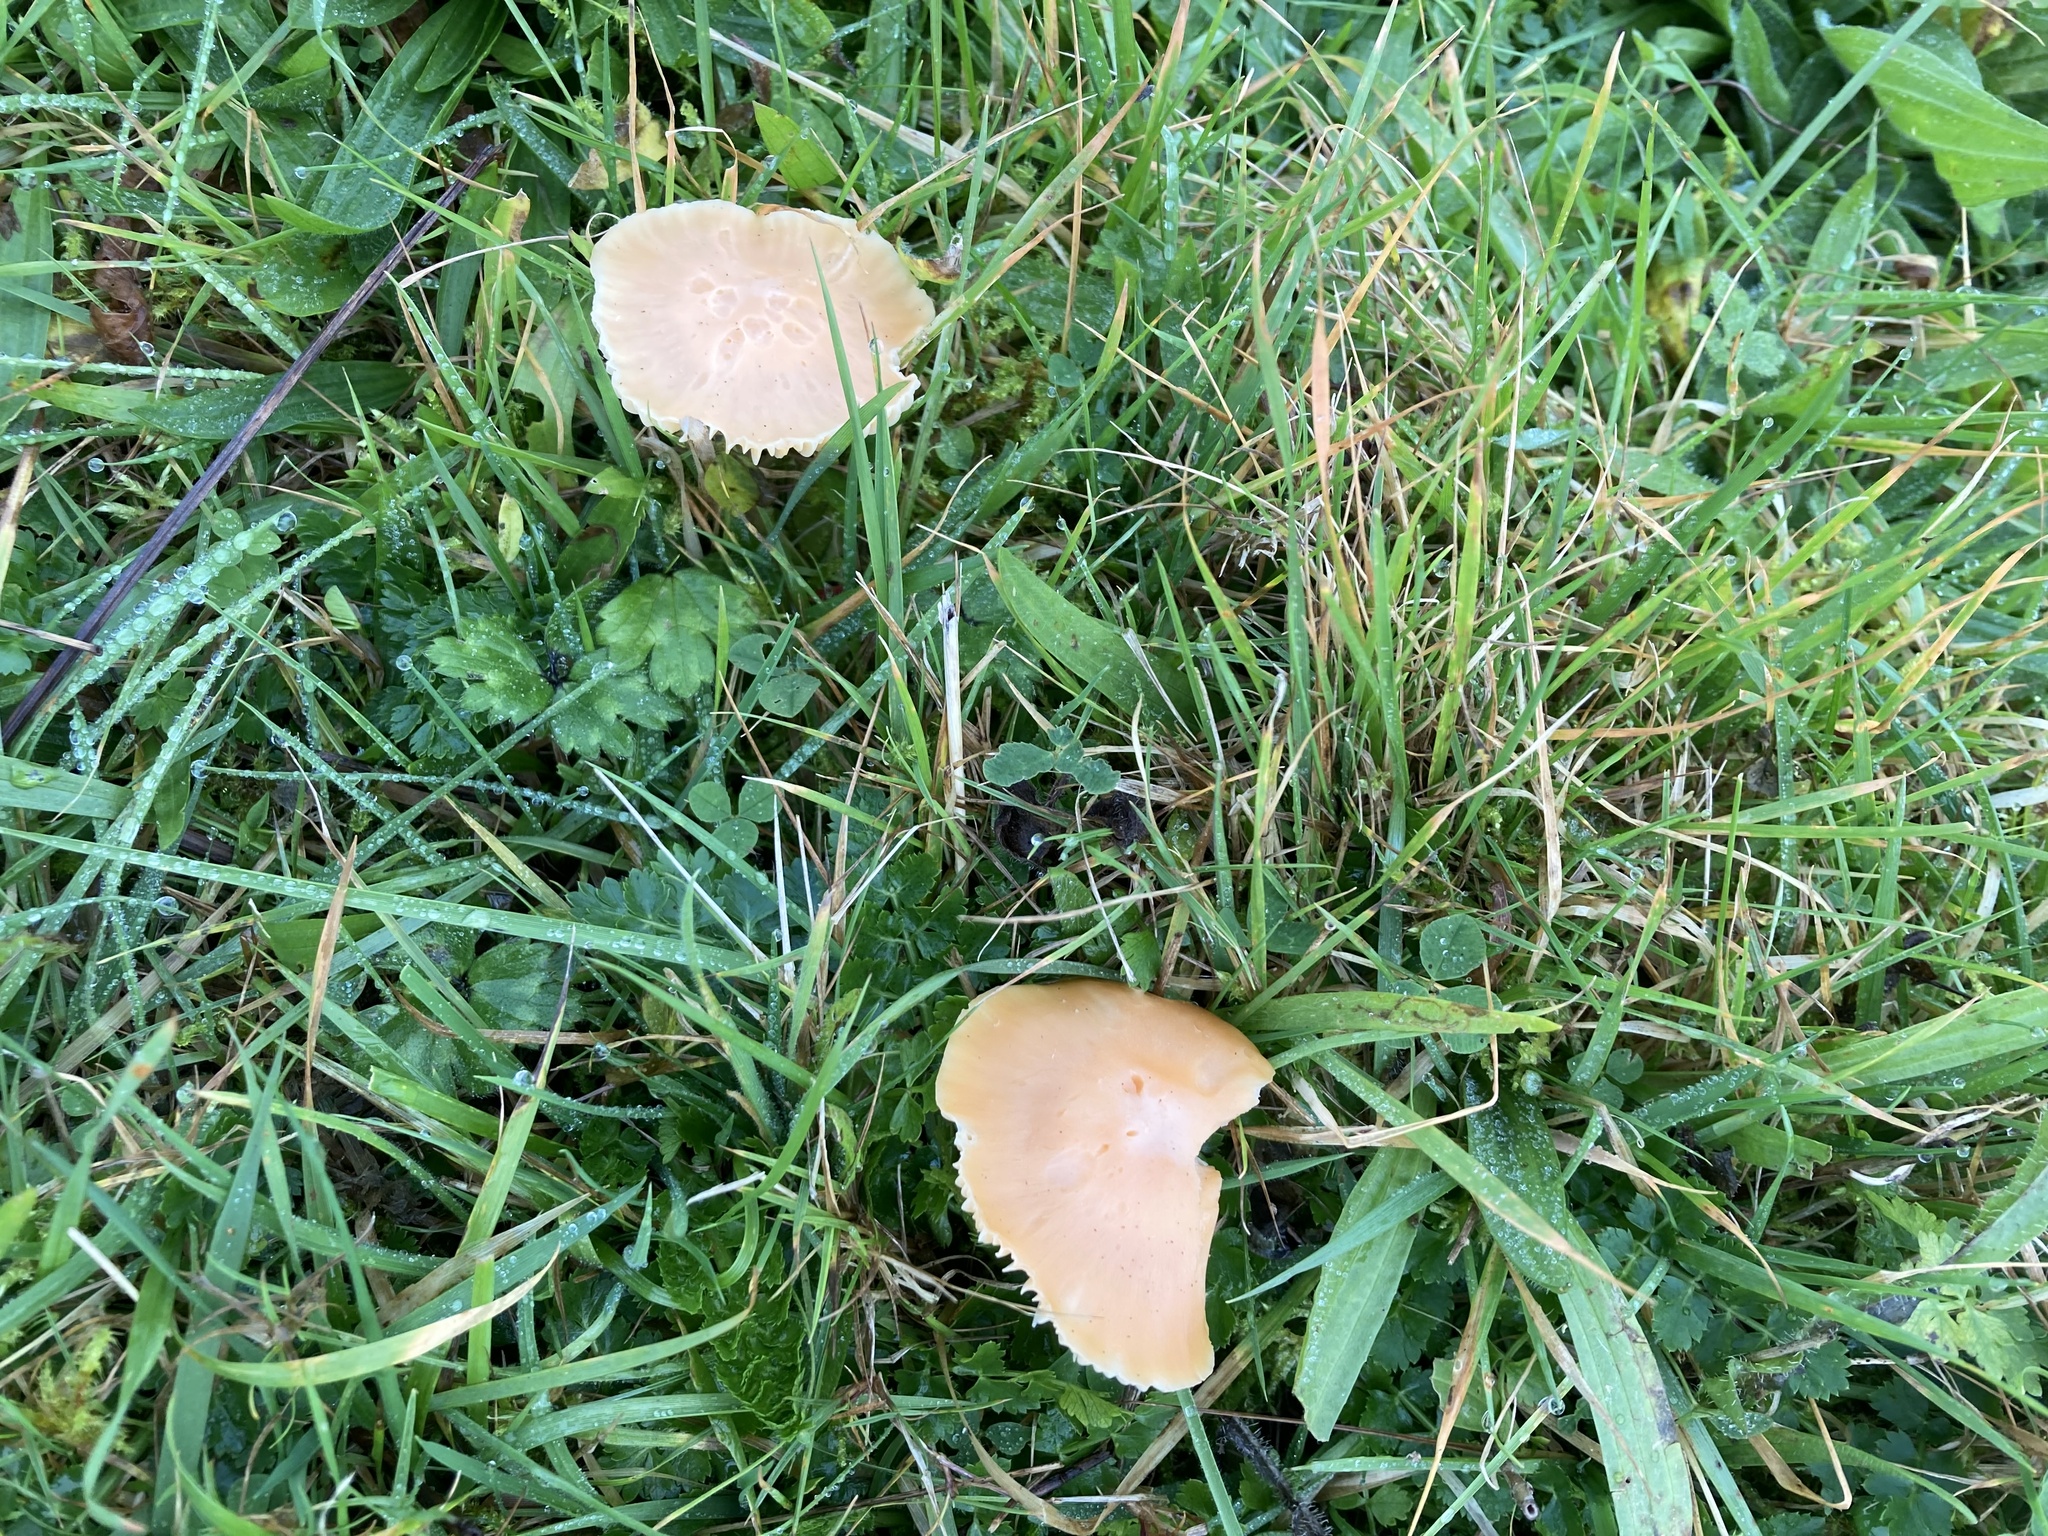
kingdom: Fungi
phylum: Basidiomycota
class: Agaricomycetes
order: Agaricales
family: Hygrophoraceae
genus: Cuphophyllus
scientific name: Cuphophyllus pratensis
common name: Meadow waxcap
